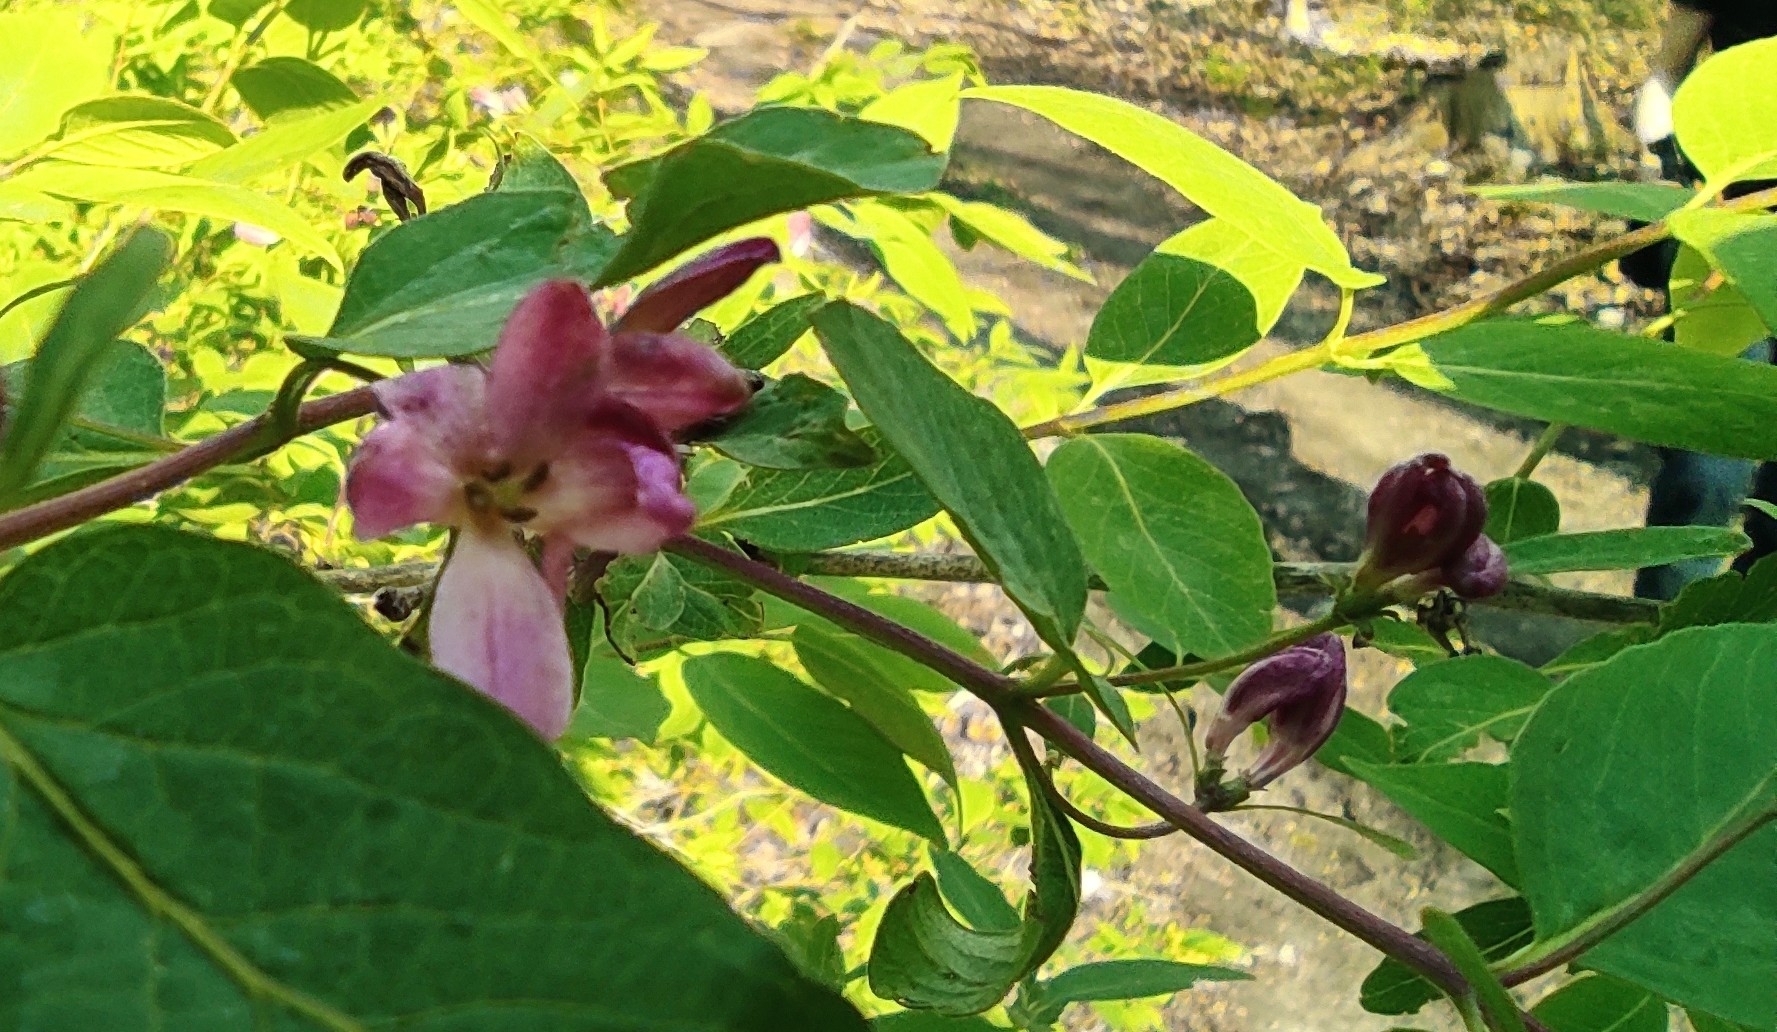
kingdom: Plantae
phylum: Tracheophyta
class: Magnoliopsida
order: Dipsacales
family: Caprifoliaceae
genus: Lonicera
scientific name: Lonicera tatarica
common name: Tatarian honeysuckle
